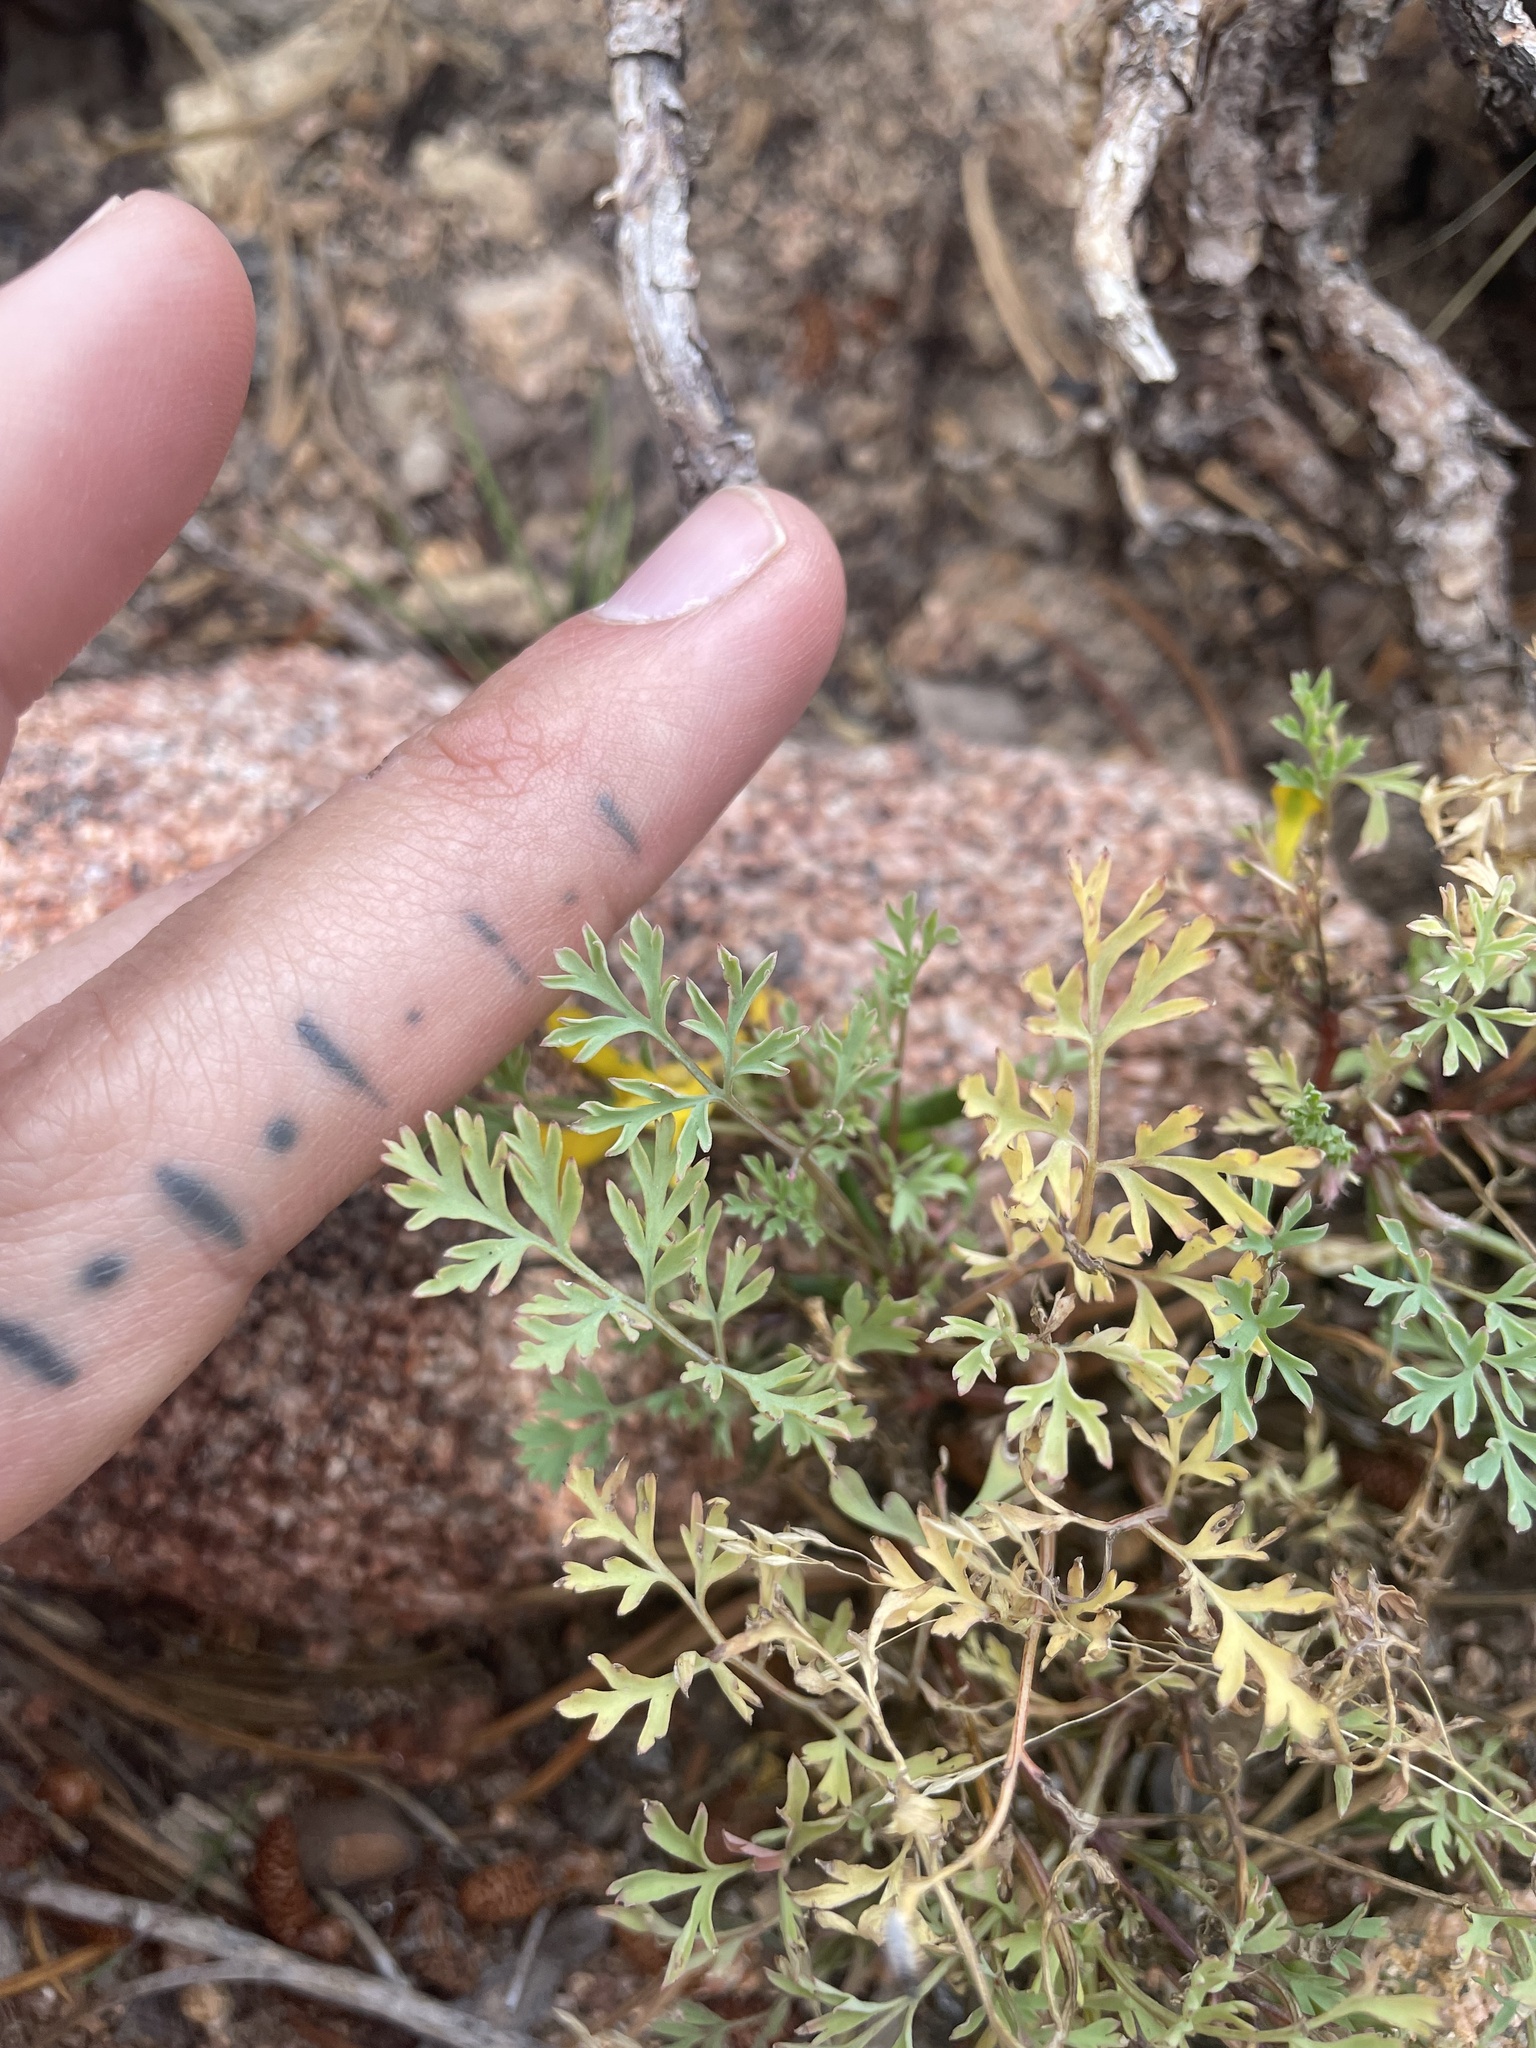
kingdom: Plantae
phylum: Tracheophyta
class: Magnoliopsida
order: Ranunculales
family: Papaveraceae
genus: Corydalis
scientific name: Corydalis aurea
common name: Golden corydalis
